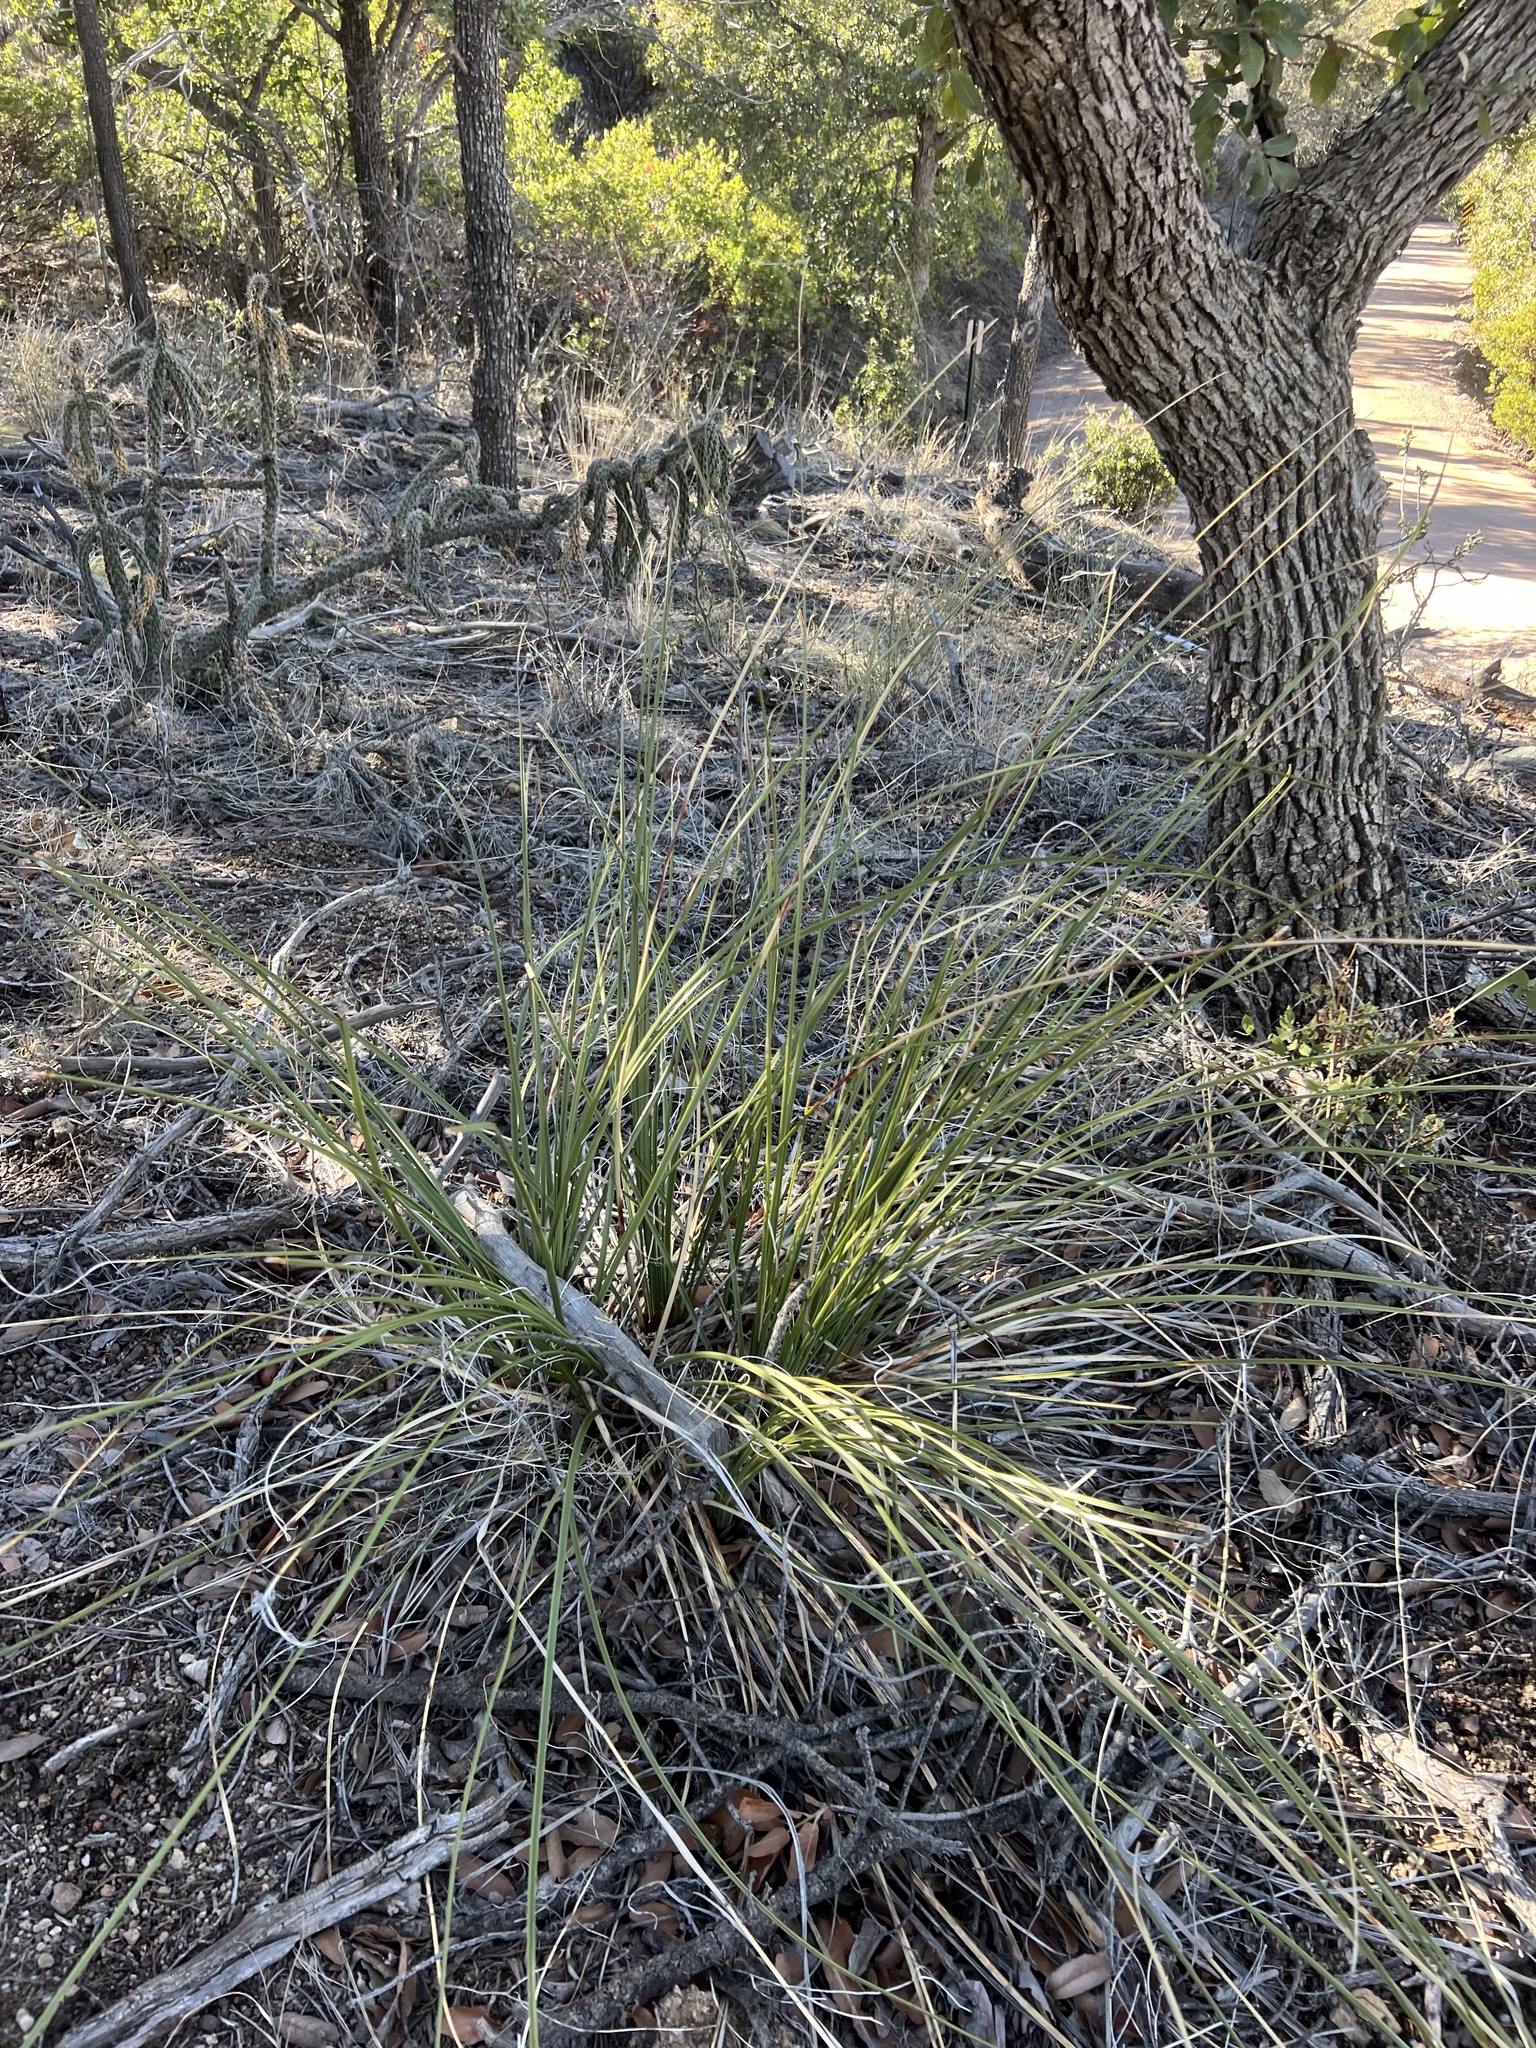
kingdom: Plantae
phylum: Tracheophyta
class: Liliopsida
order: Asparagales
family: Asparagaceae
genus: Nolina
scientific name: Nolina microcarpa
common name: Bear-grass
